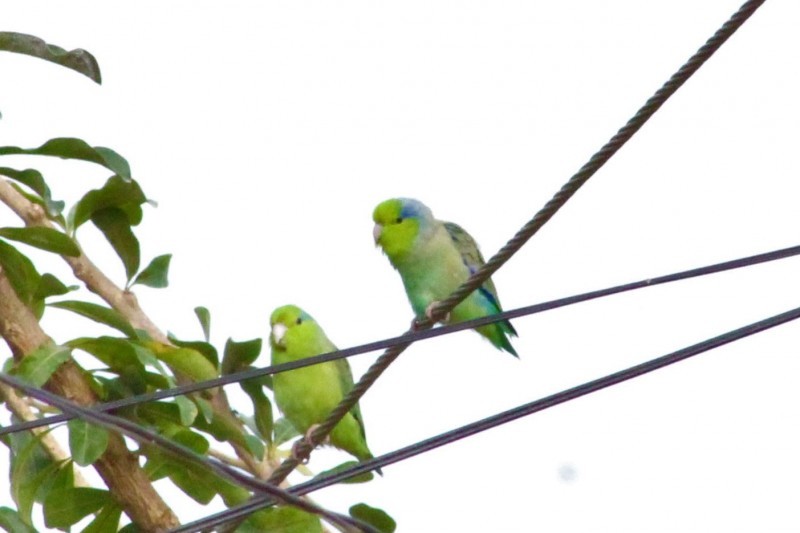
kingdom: Animalia
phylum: Chordata
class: Aves
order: Psittaciformes
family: Psittacidae
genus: Forpus
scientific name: Forpus coelestis
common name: Pacific parrotlet
